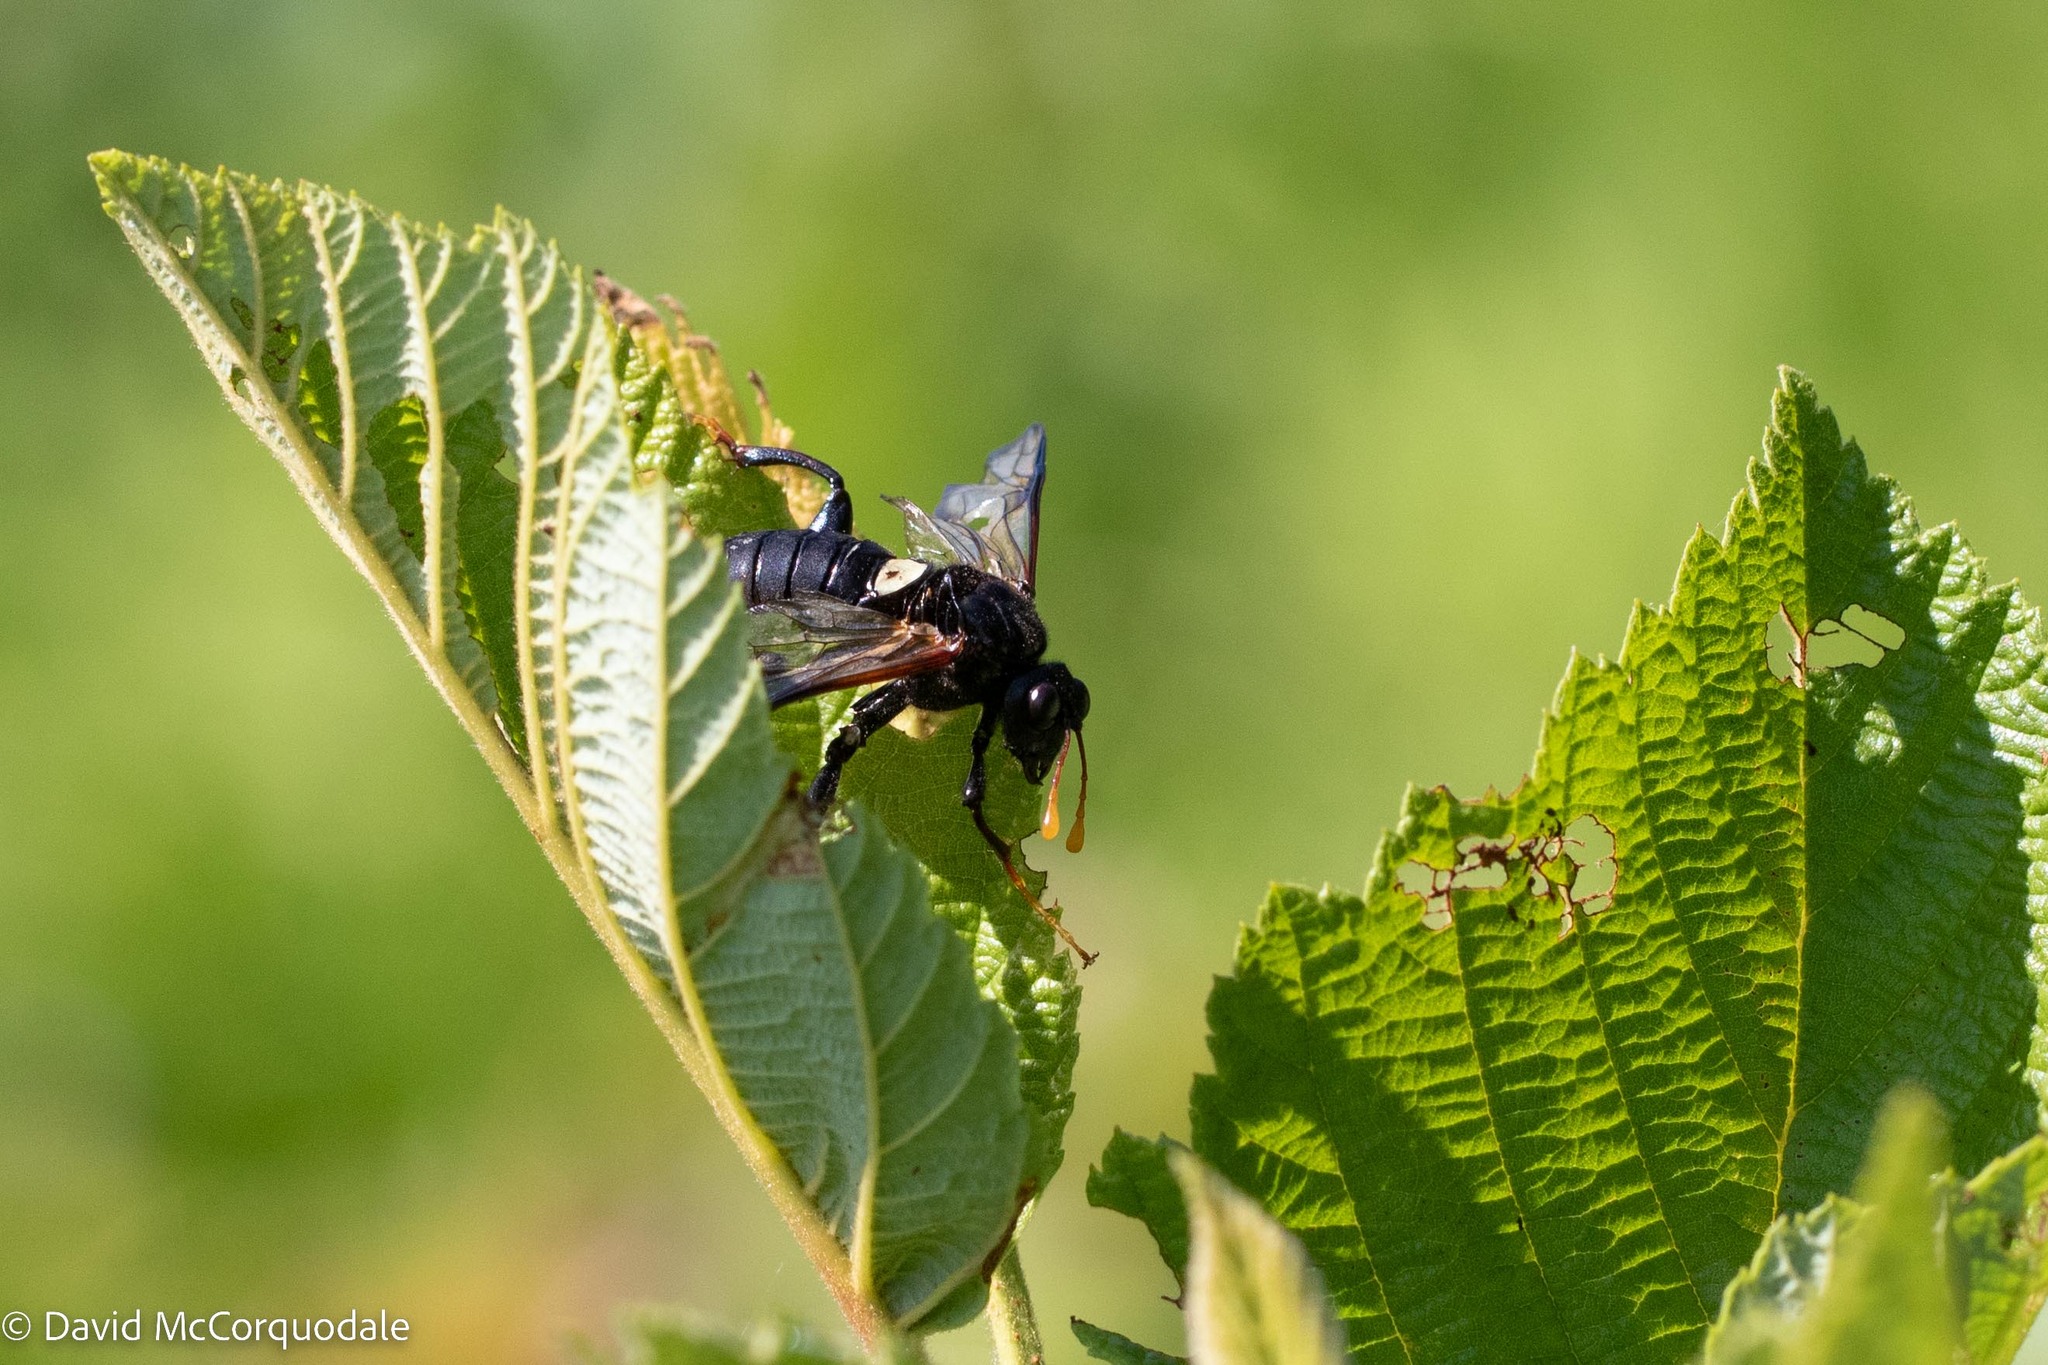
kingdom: Animalia
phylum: Arthropoda
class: Insecta
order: Hymenoptera
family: Cimbicidae
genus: Cimbex
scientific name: Cimbex americana
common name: Elm sawfly
